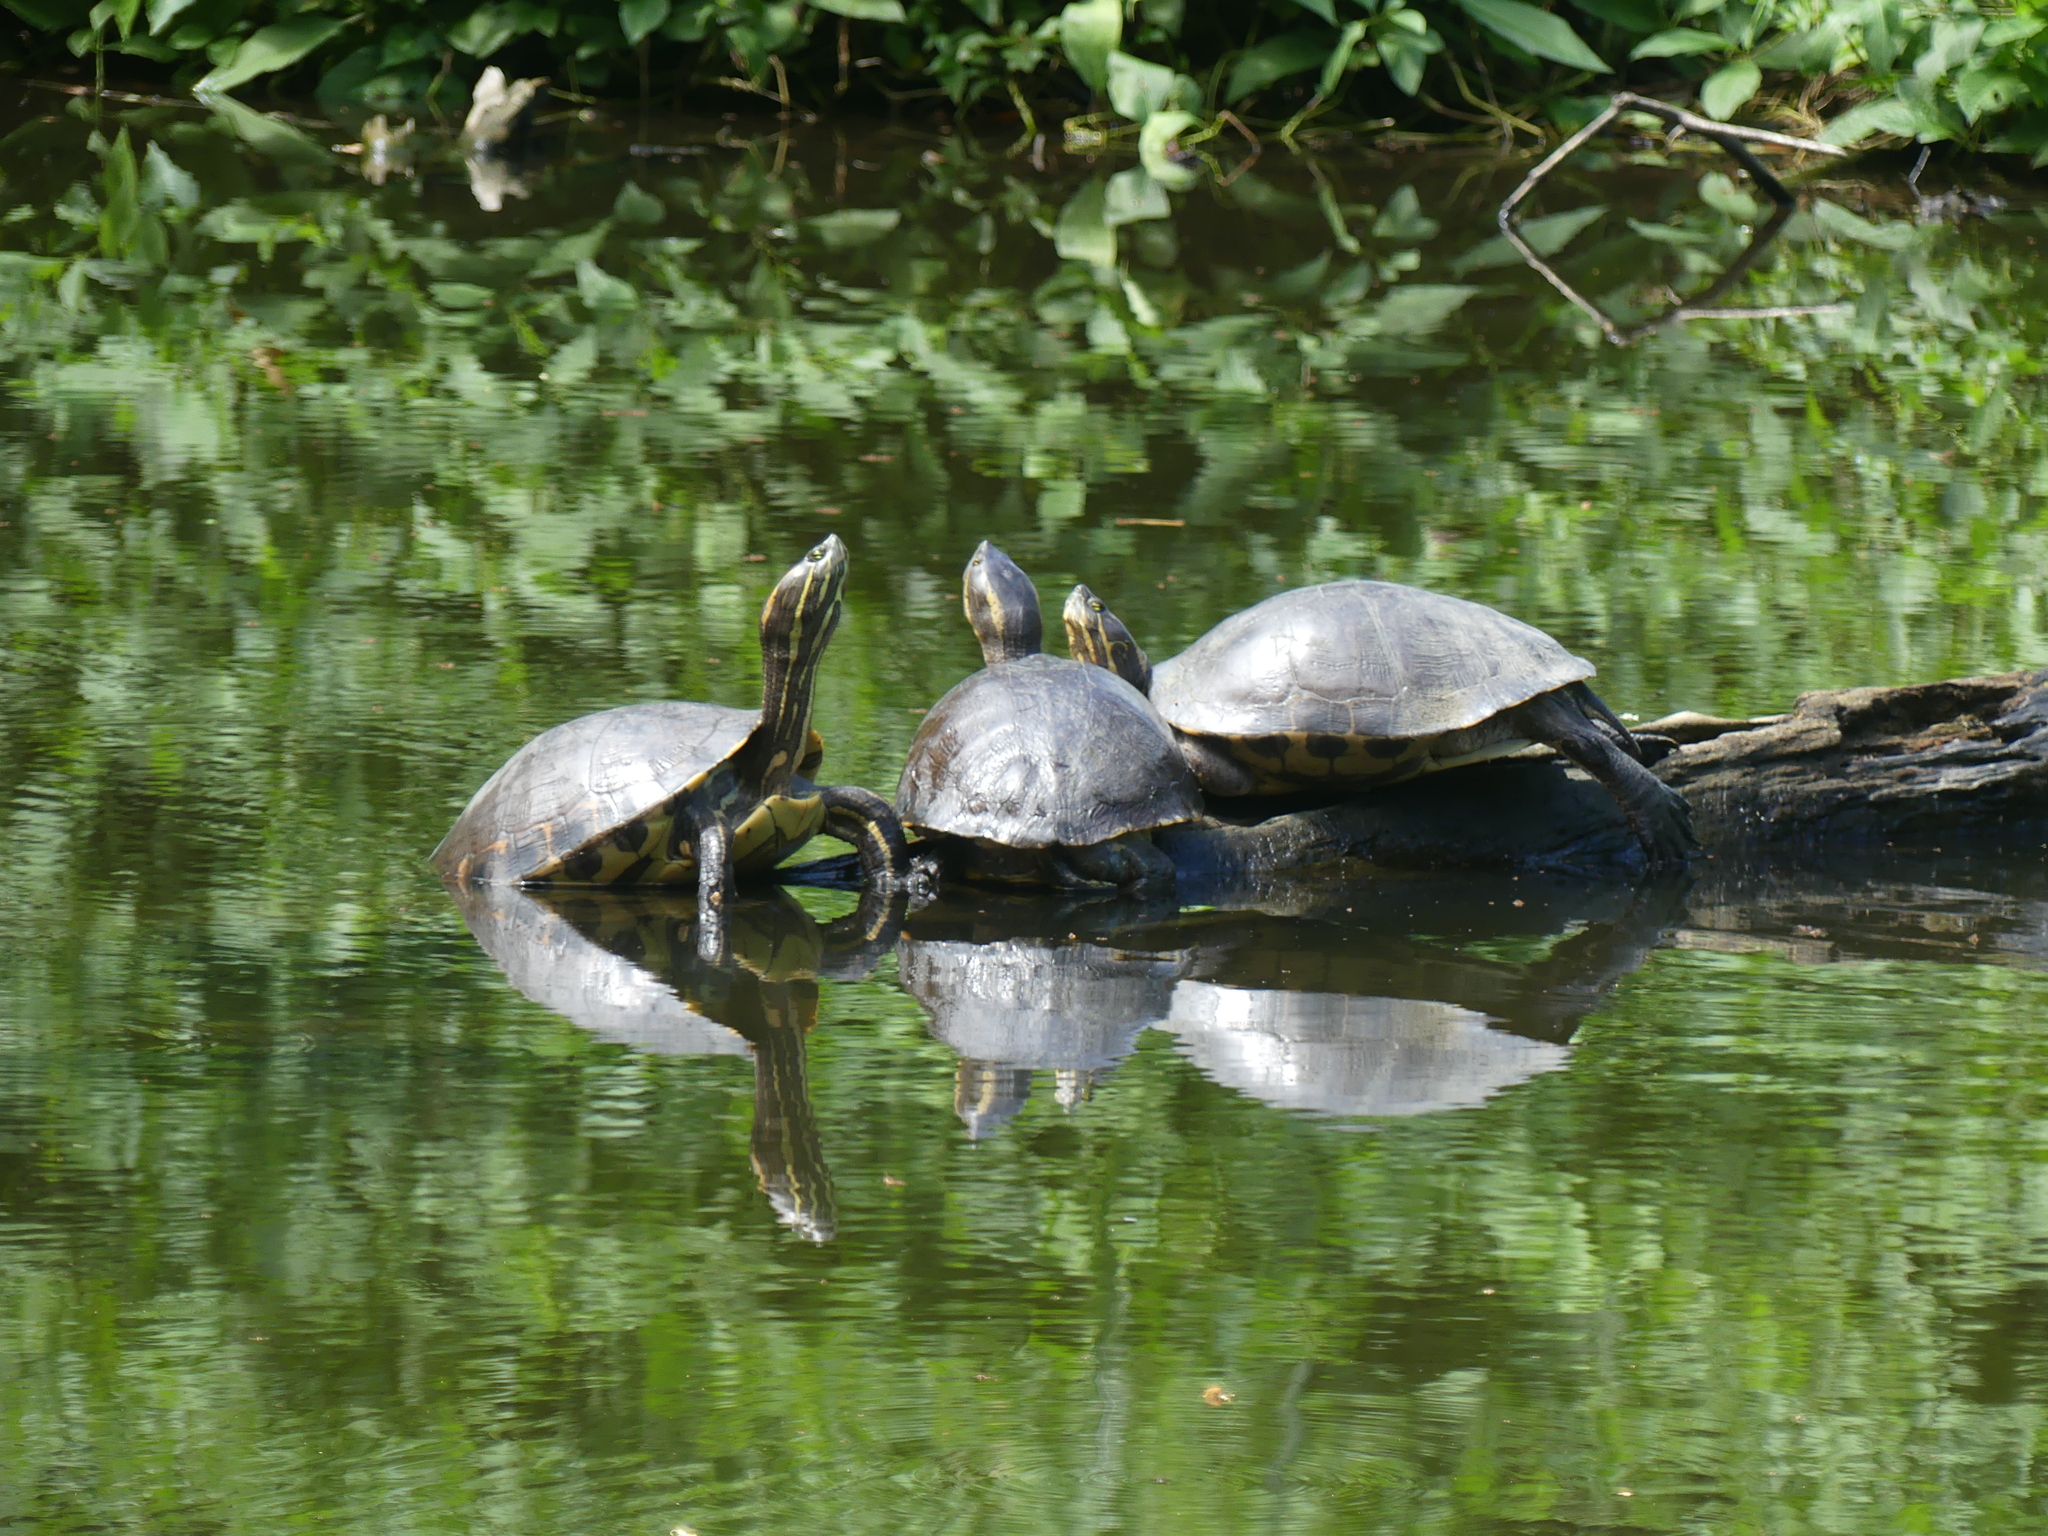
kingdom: Animalia
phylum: Chordata
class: Testudines
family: Emydidae
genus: Trachemys
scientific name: Trachemys venusta
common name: Mesoamerican slider
